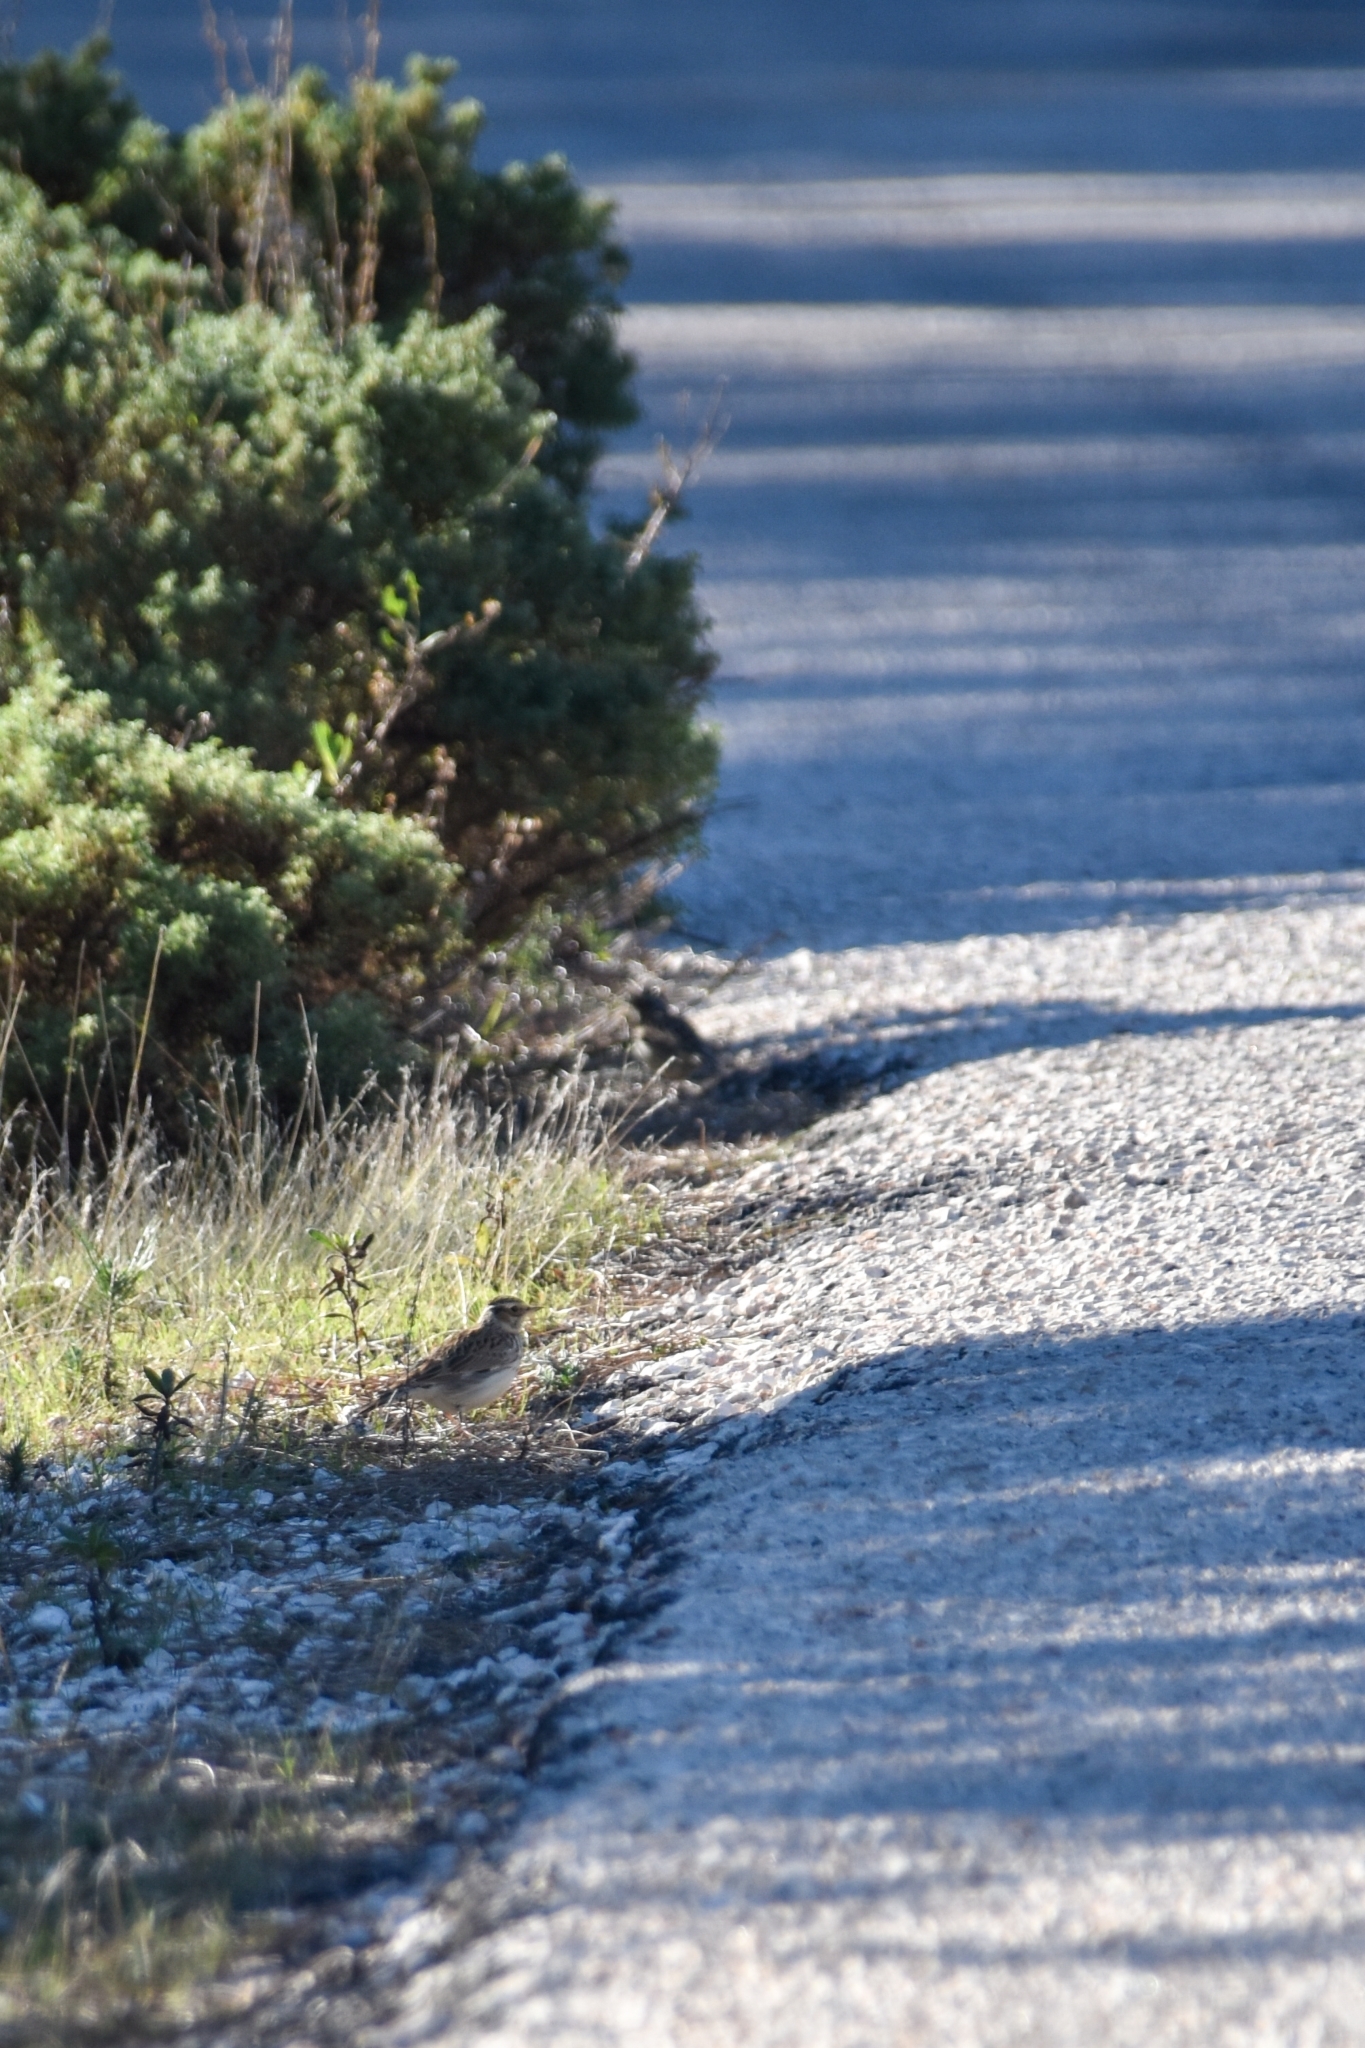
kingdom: Animalia
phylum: Chordata
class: Aves
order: Passeriformes
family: Alaudidae
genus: Lullula
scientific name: Lullula arborea
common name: Woodlark
